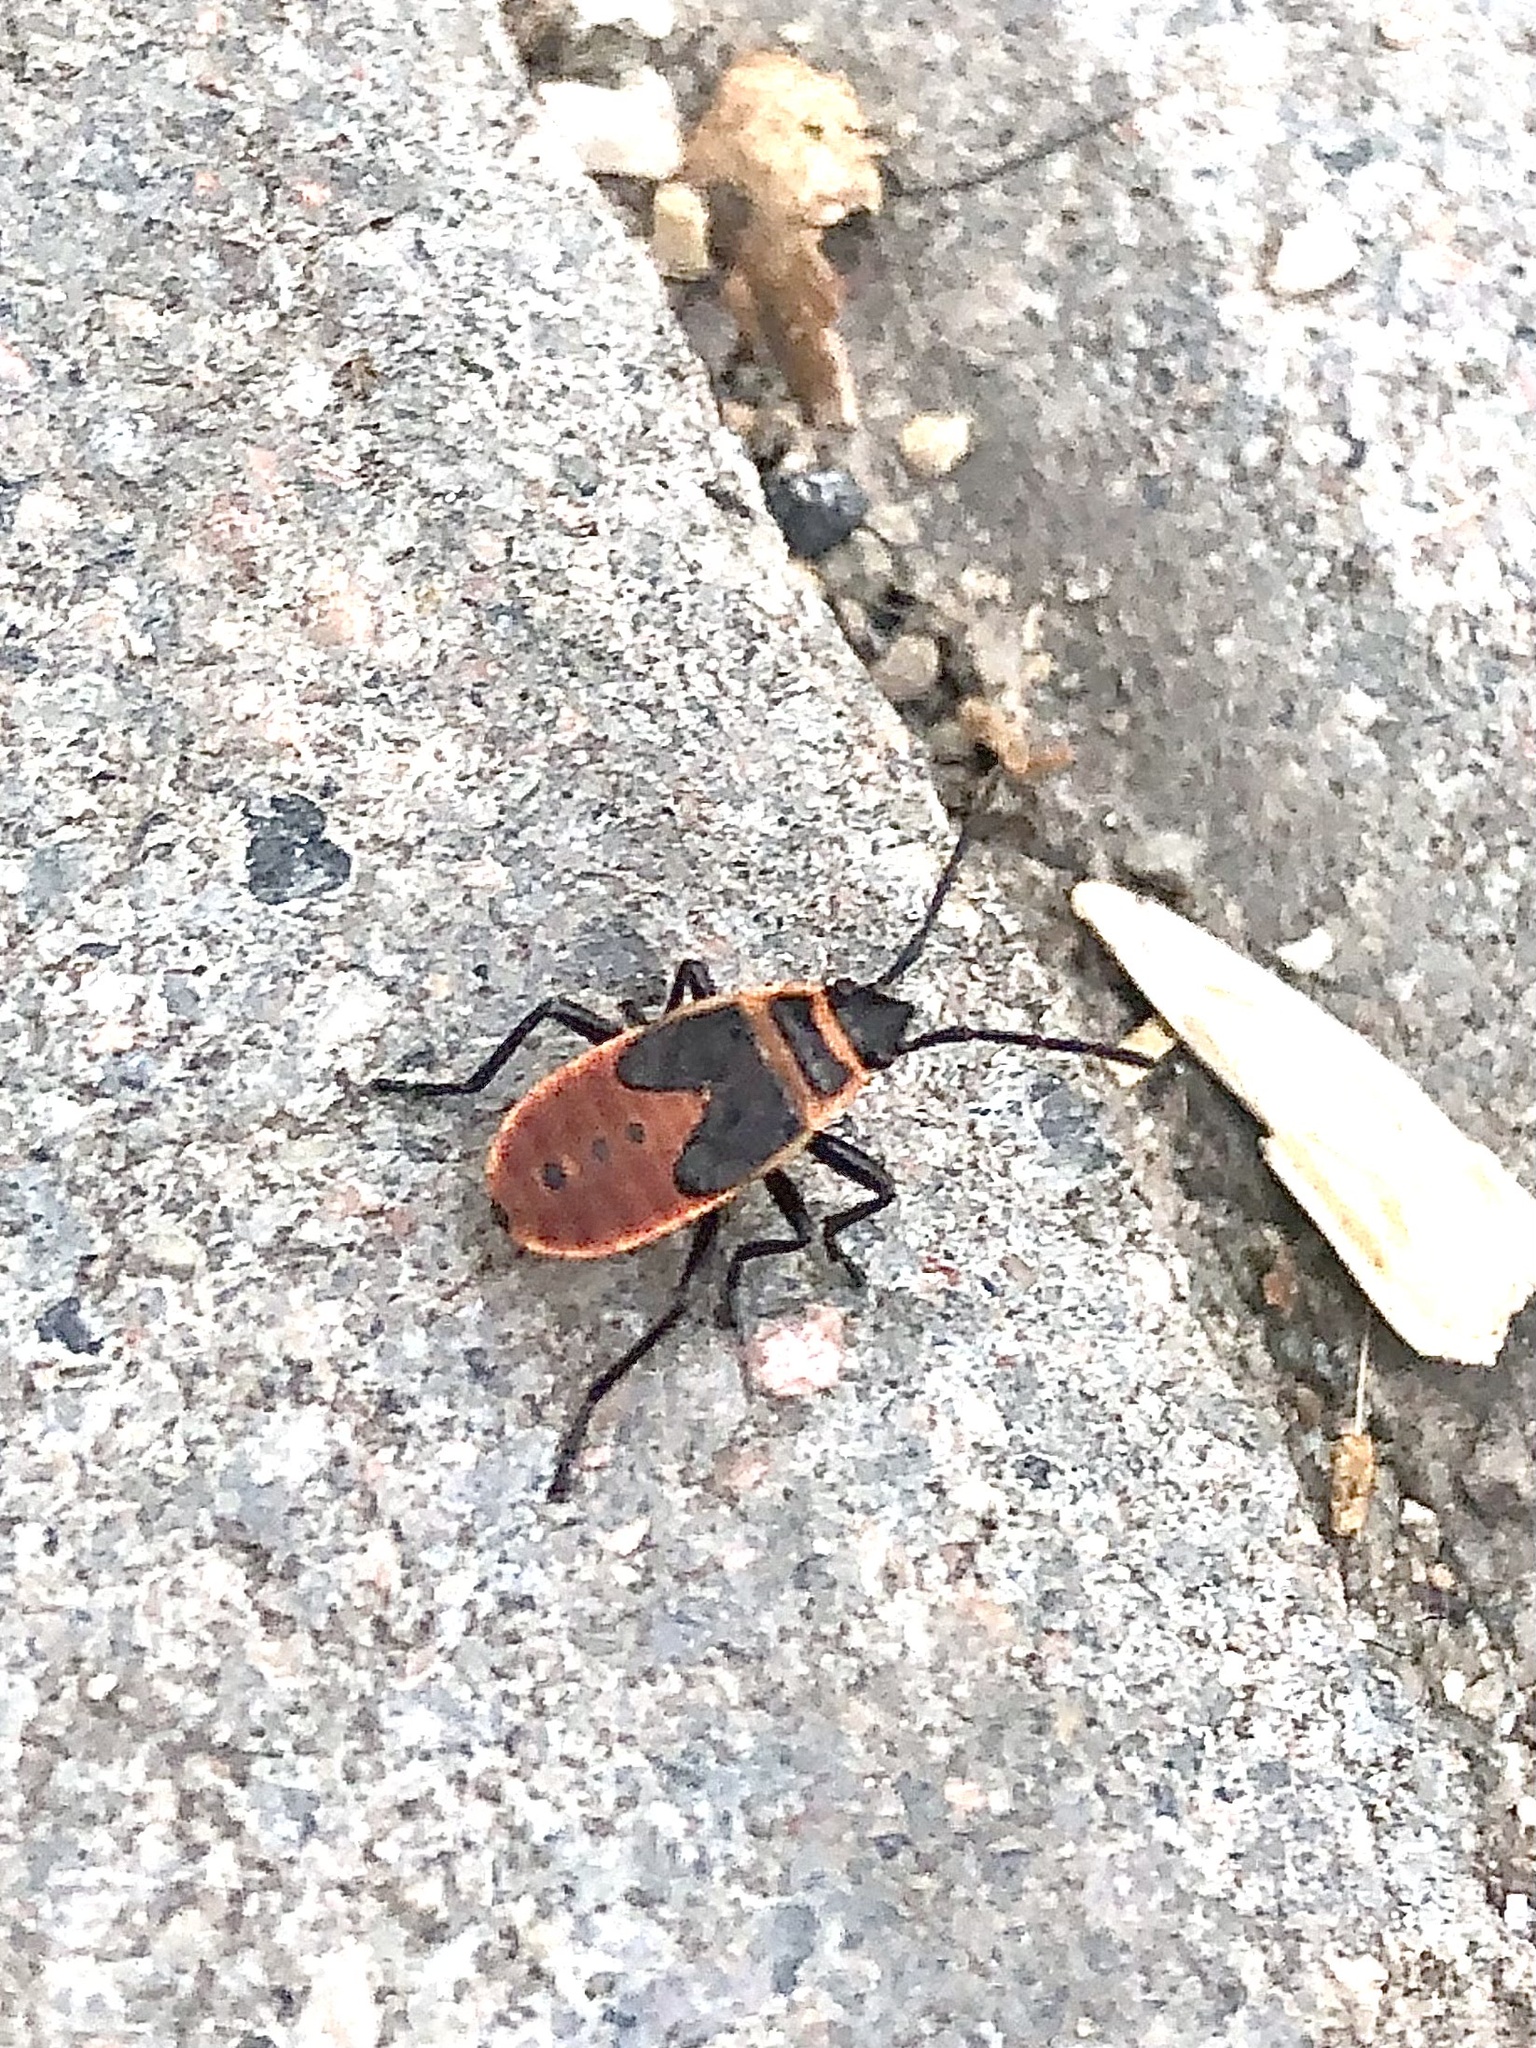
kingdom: Animalia
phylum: Arthropoda
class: Insecta
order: Hemiptera
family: Pyrrhocoridae
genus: Pyrrhocoris
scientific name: Pyrrhocoris apterus
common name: Firebug
